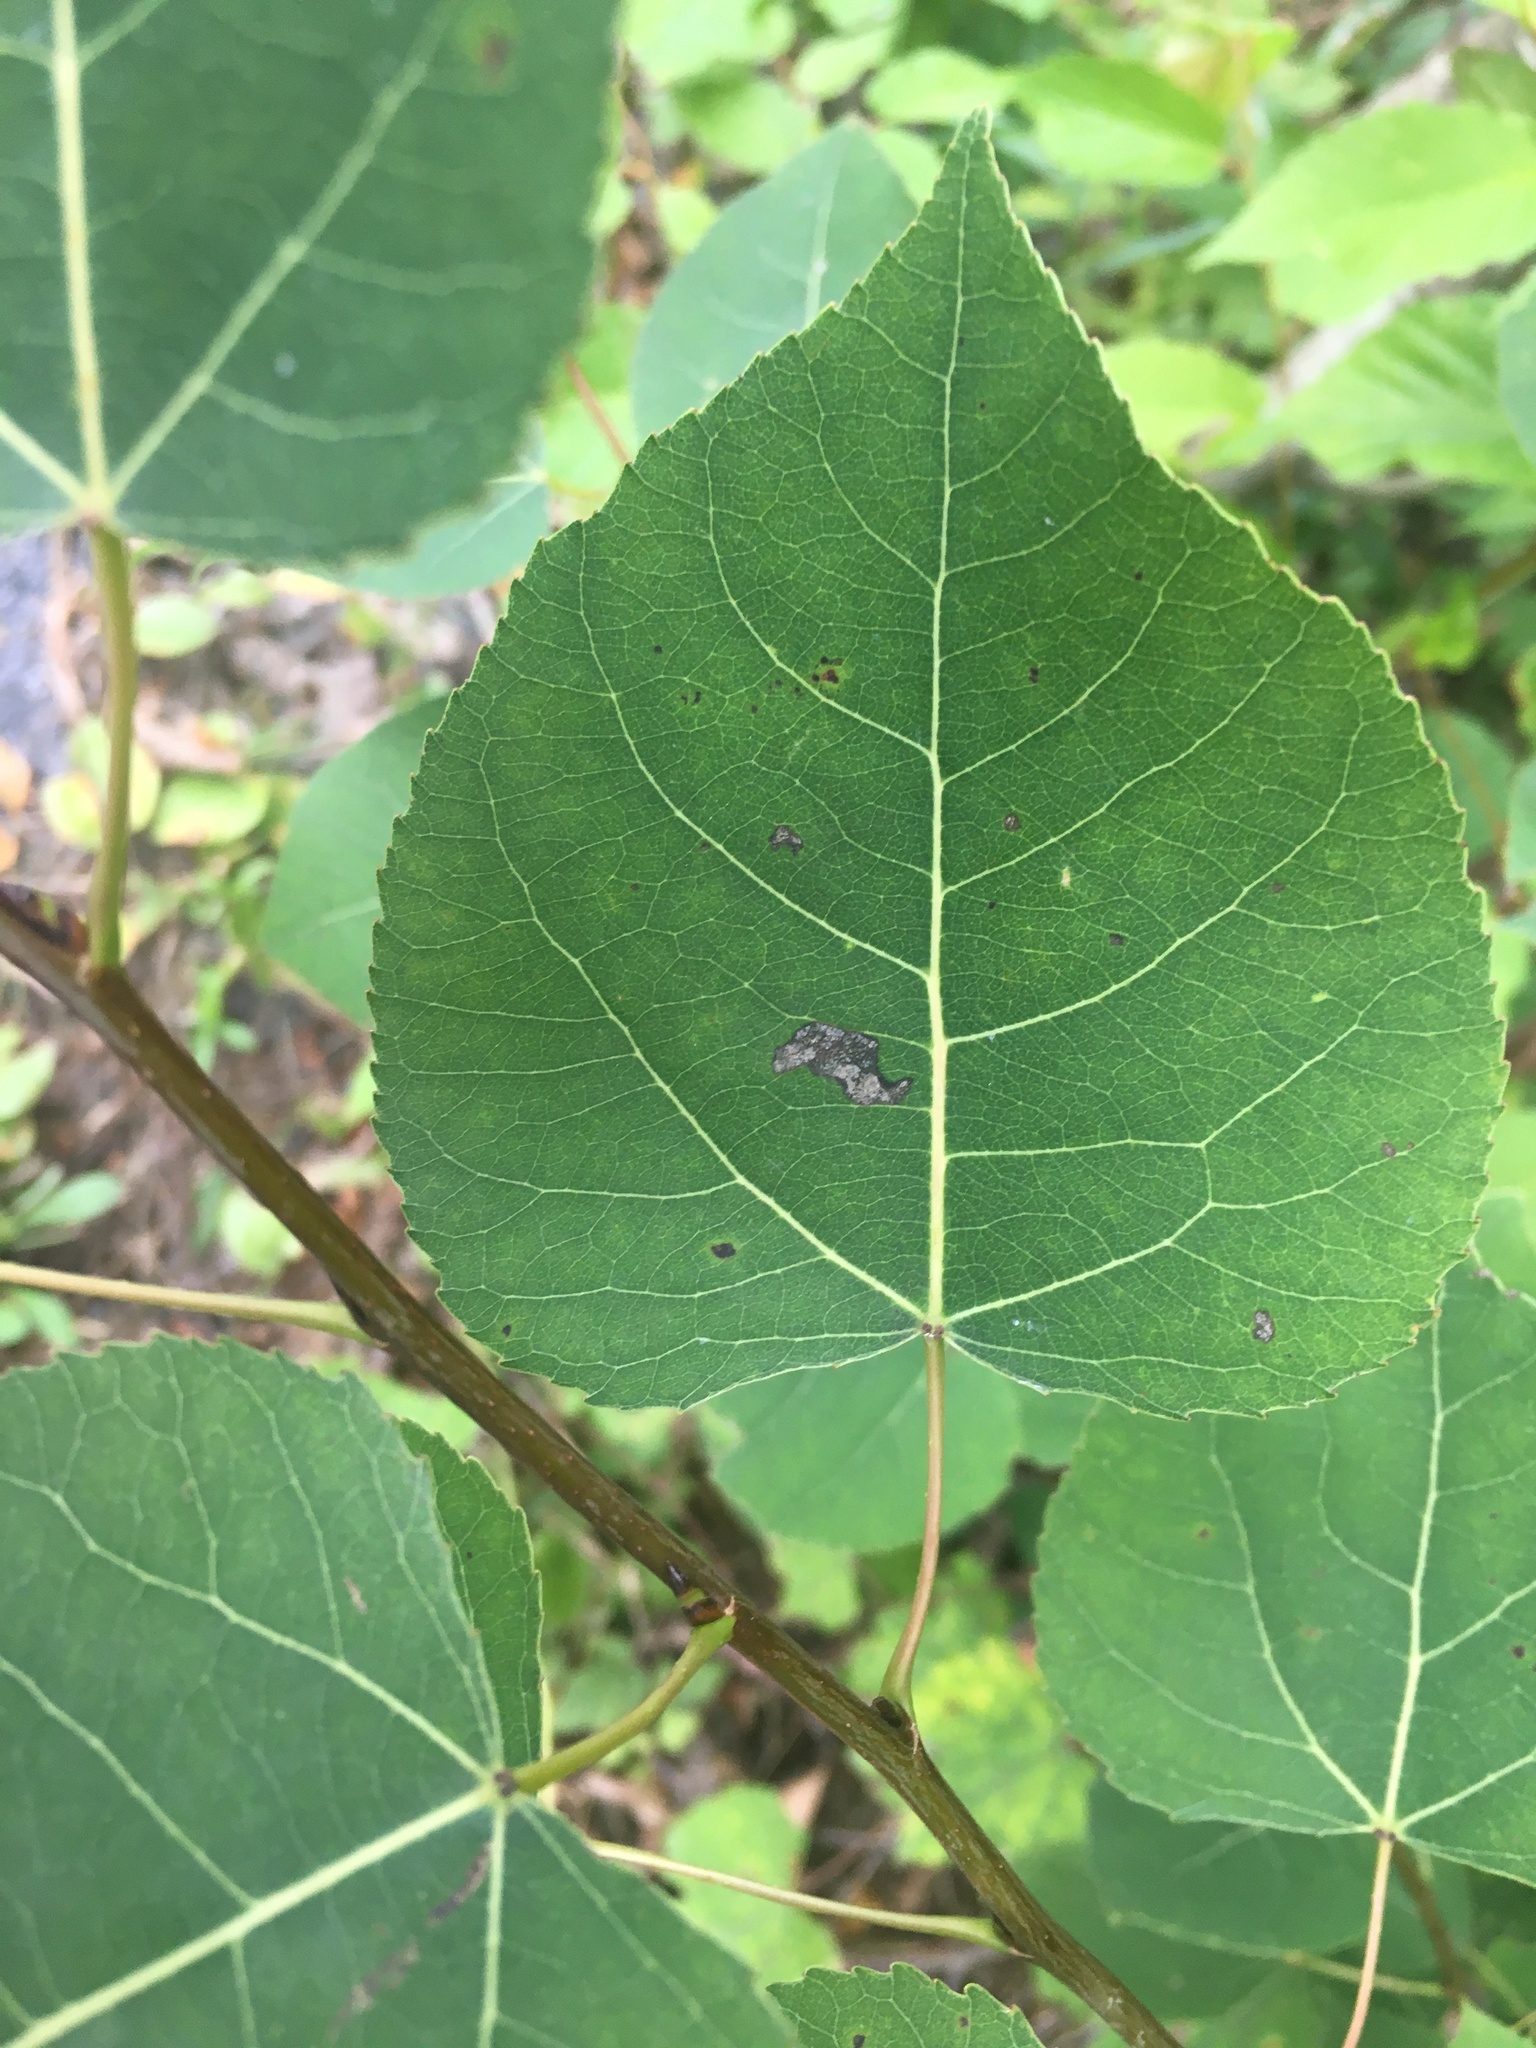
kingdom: Plantae
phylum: Tracheophyta
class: Magnoliopsida
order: Malpighiales
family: Salicaceae
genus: Populus
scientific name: Populus tremuloides
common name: Quaking aspen
